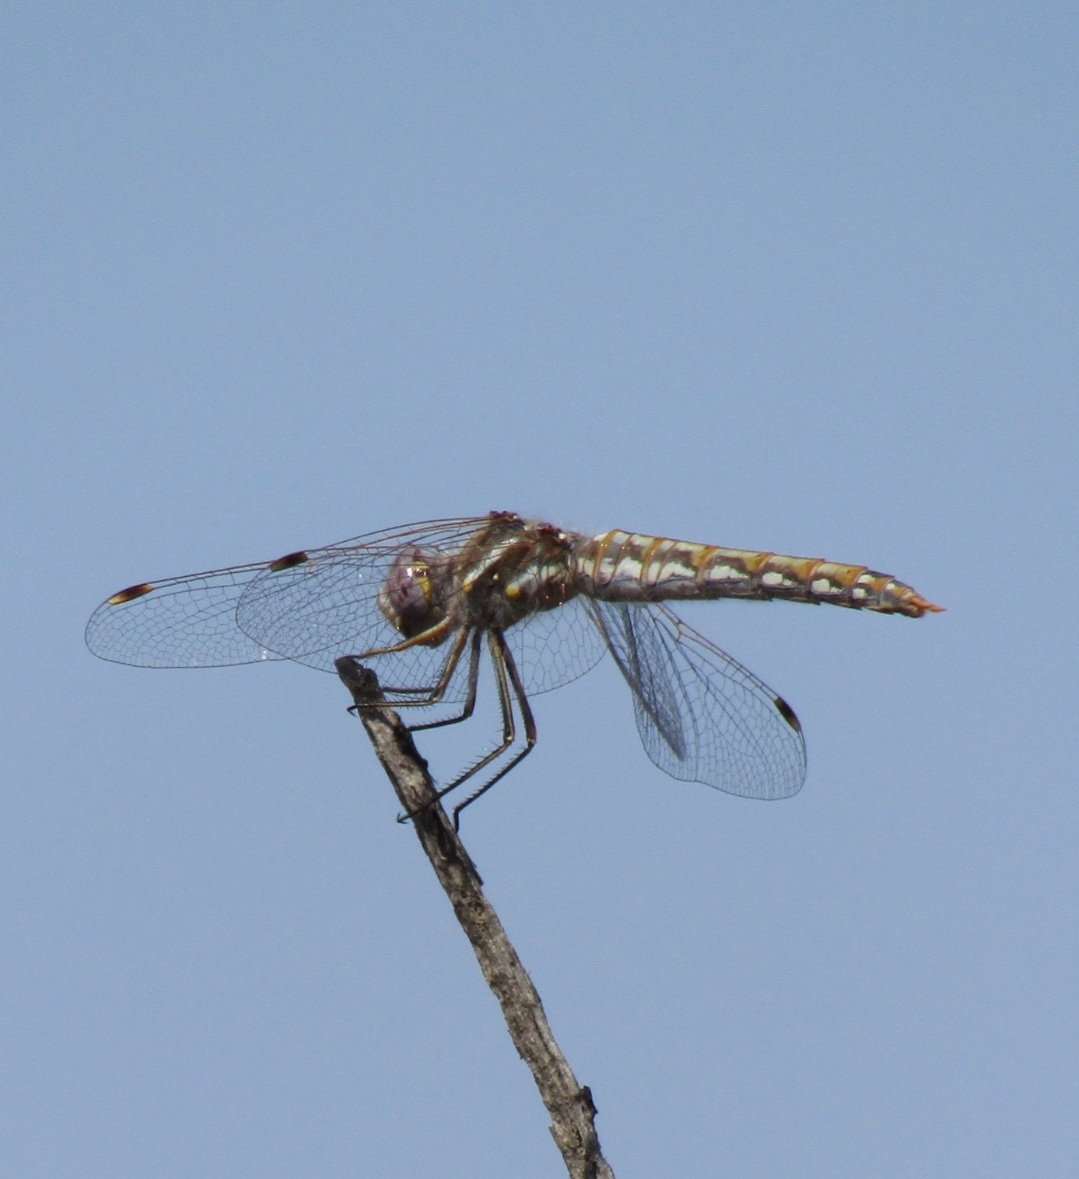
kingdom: Animalia
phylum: Arthropoda
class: Insecta
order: Odonata
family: Libellulidae
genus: Sympetrum
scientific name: Sympetrum corruptum
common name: Variegated meadowhawk
